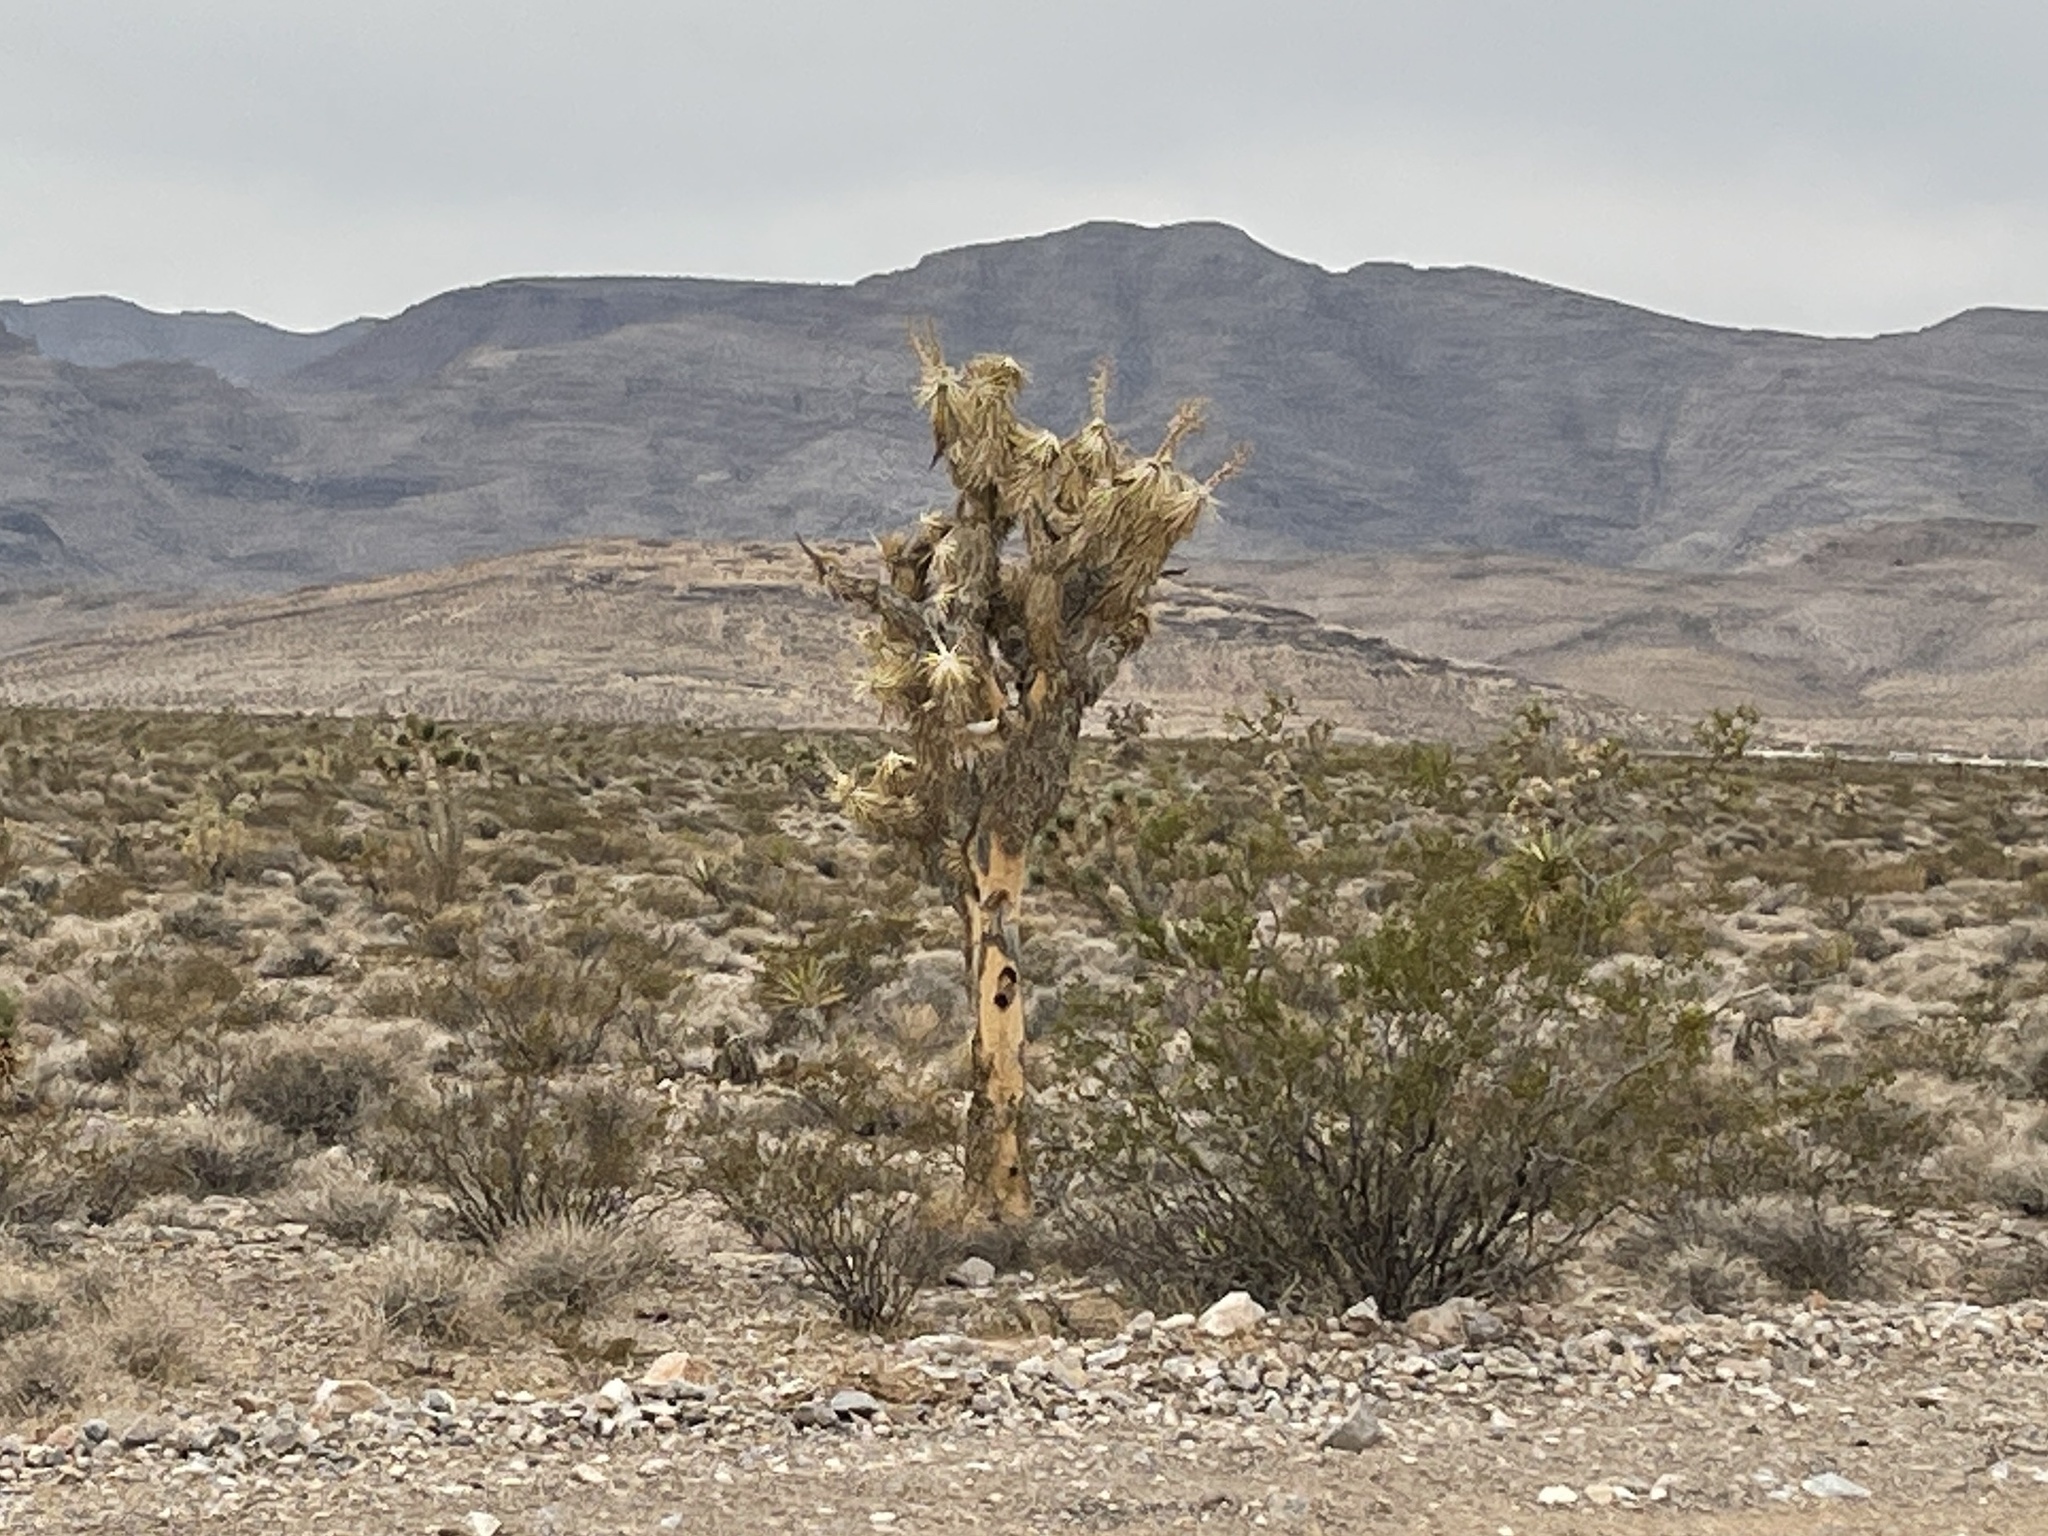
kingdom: Plantae
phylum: Tracheophyta
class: Liliopsida
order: Asparagales
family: Asparagaceae
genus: Yucca
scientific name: Yucca brevifolia
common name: Joshua tree
